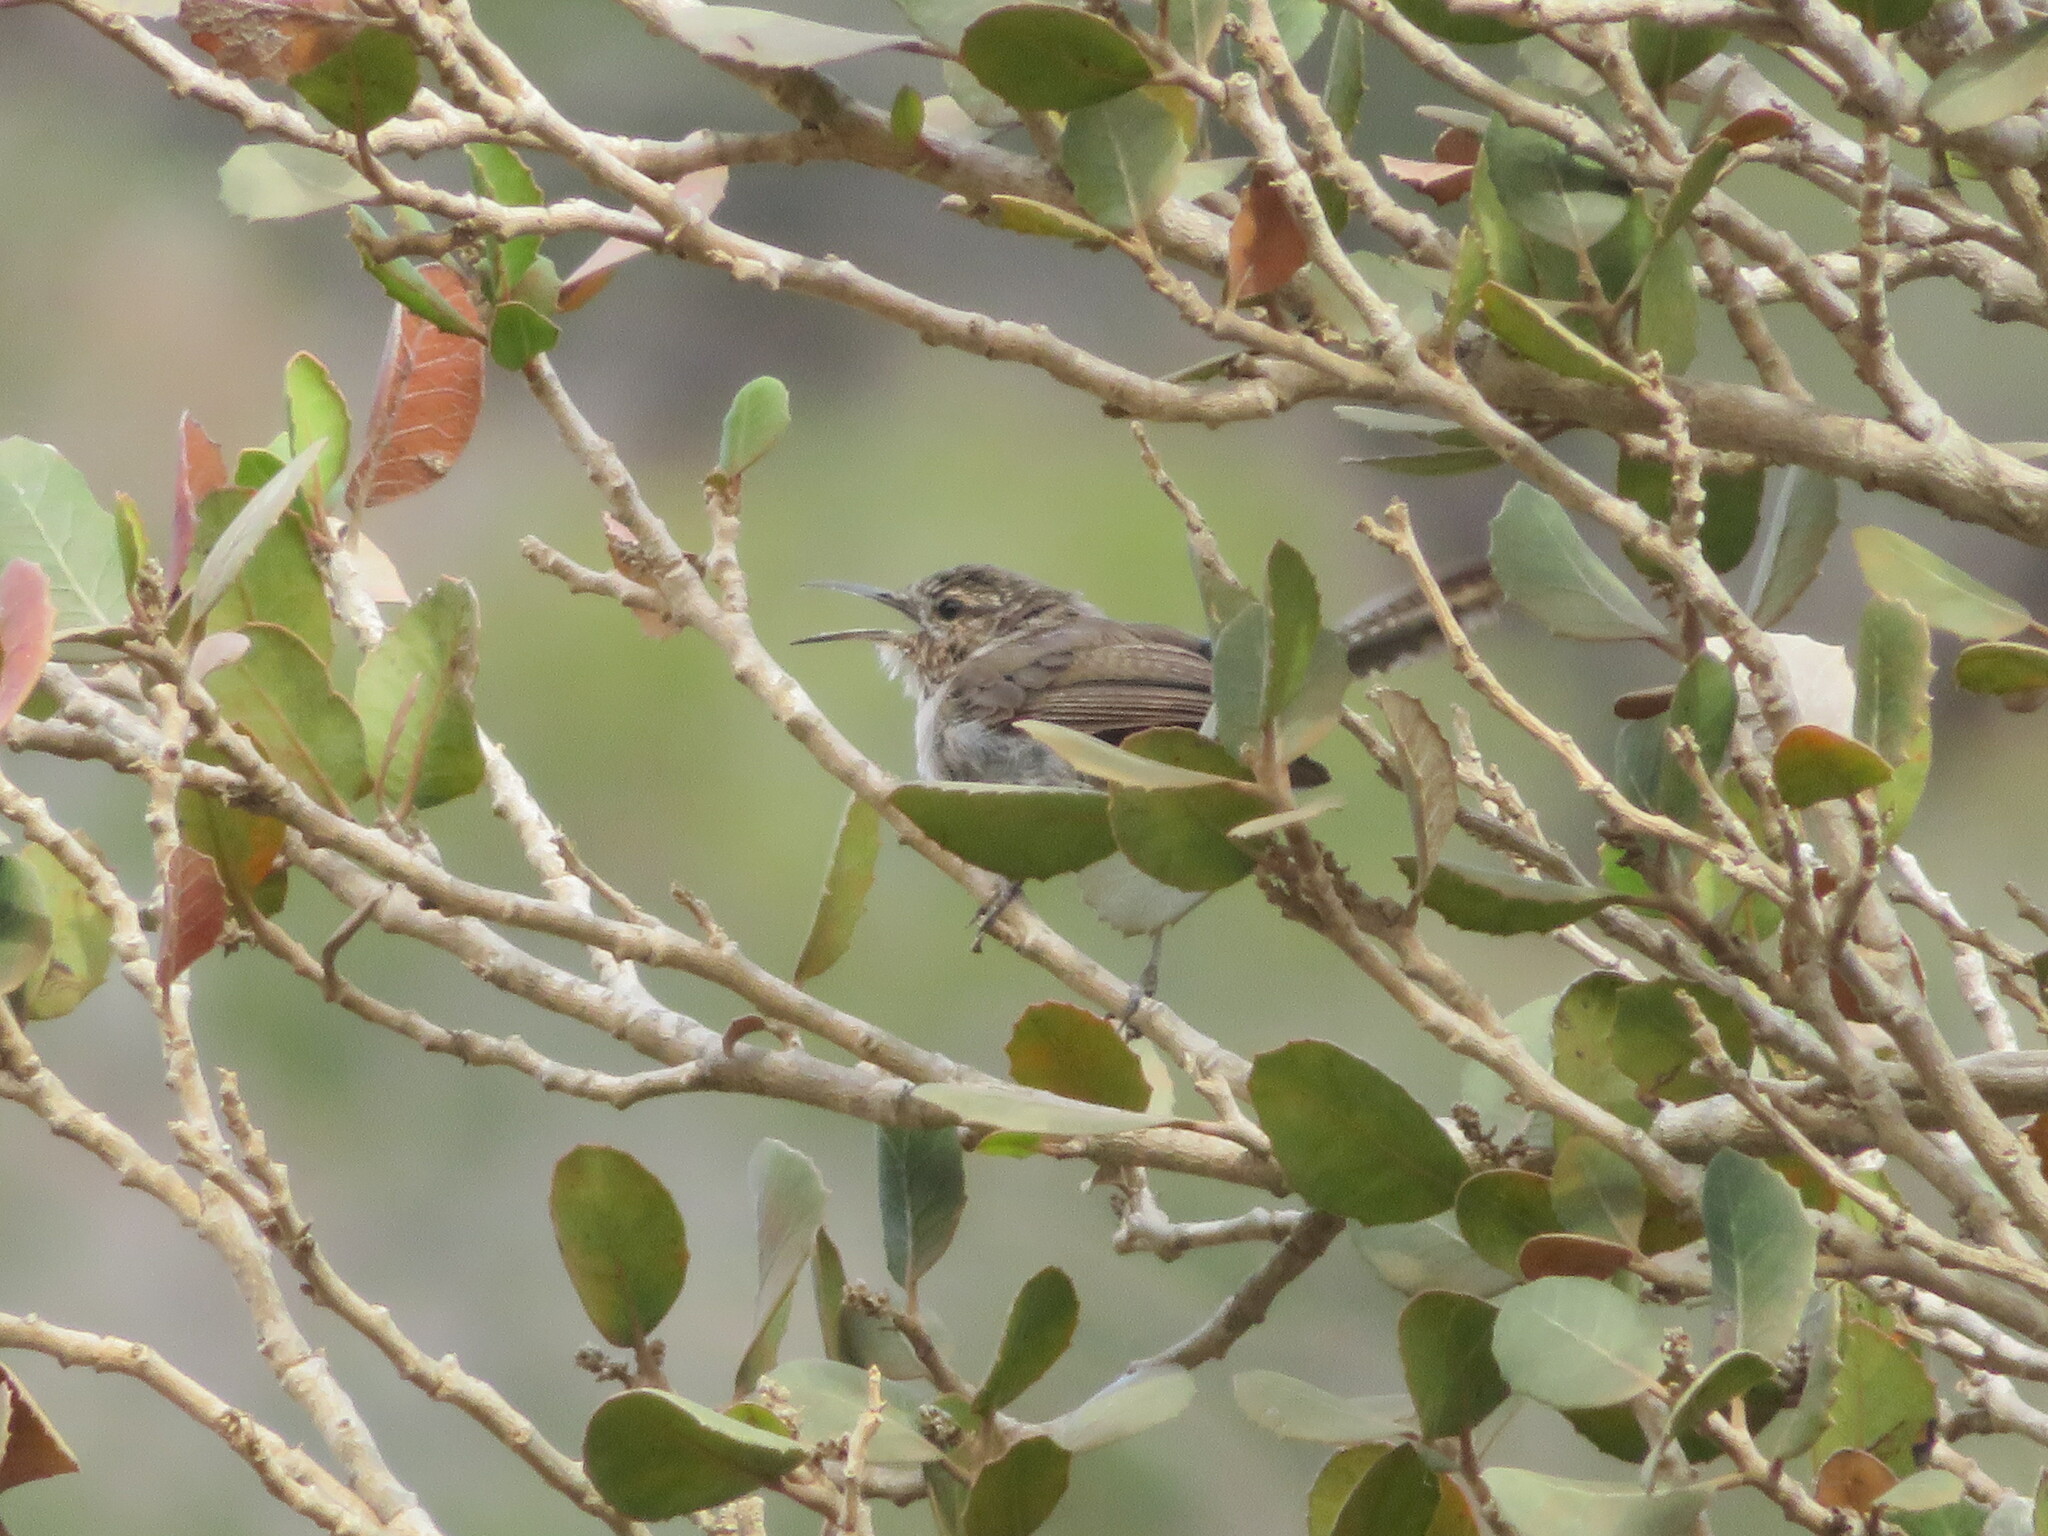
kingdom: Animalia
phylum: Chordata
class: Aves
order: Passeriformes
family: Troglodytidae
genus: Thryomanes
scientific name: Thryomanes bewickii
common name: Bewick's wren
